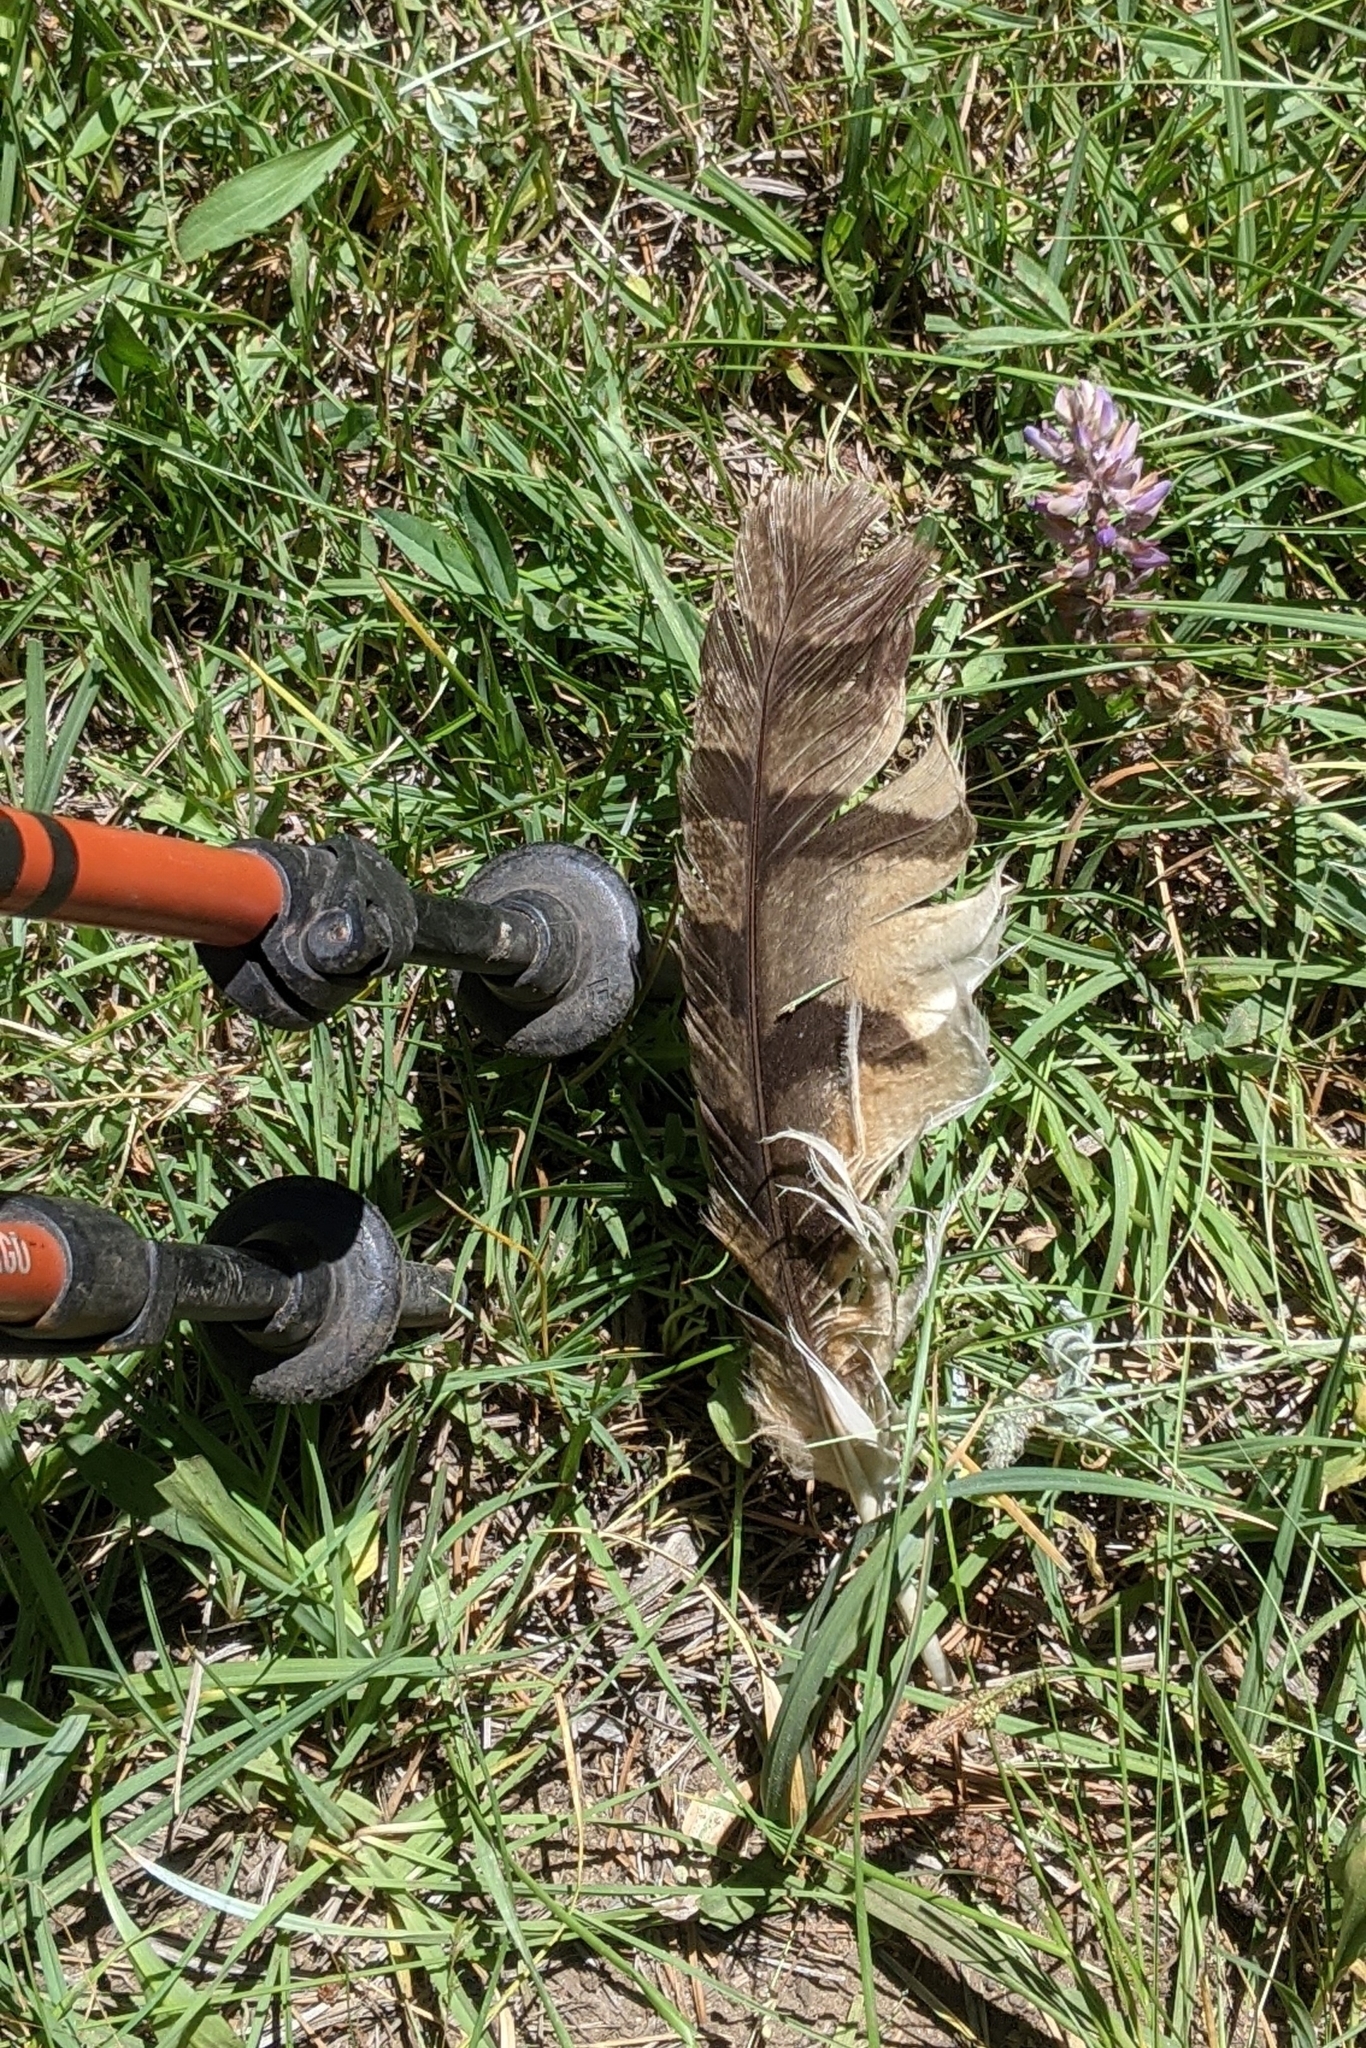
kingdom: Animalia
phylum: Chordata
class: Aves
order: Strigiformes
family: Strigidae
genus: Bubo
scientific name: Bubo virginianus
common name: Great horned owl
